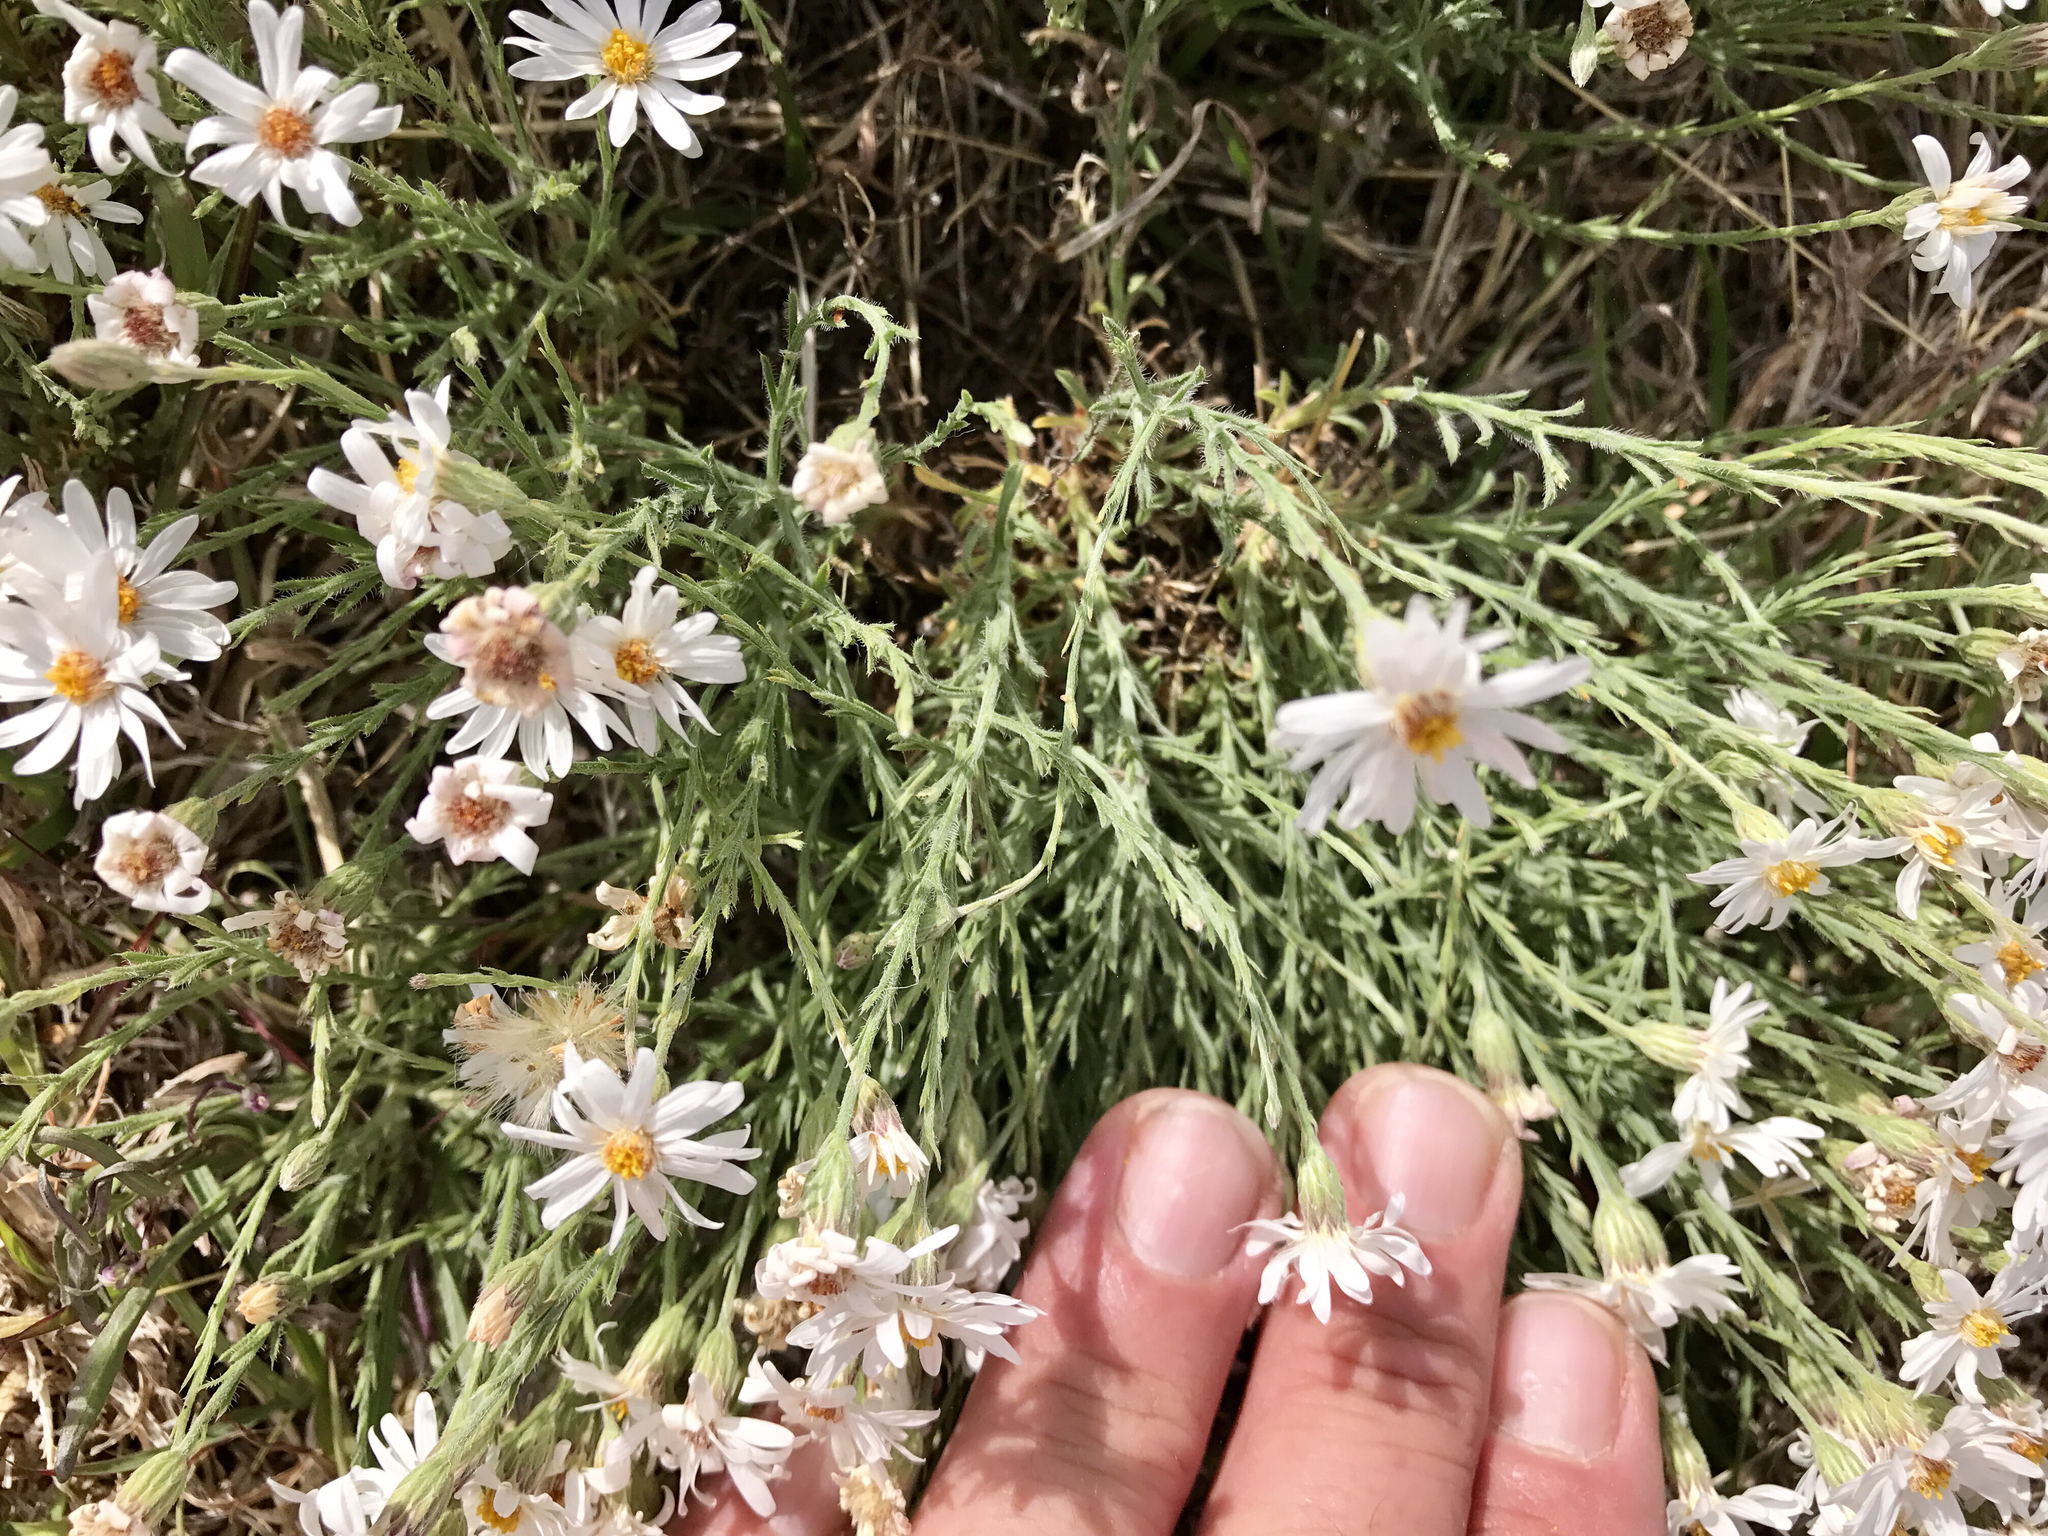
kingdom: Plantae
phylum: Tracheophyta
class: Magnoliopsida
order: Asterales
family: Asteraceae
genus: Chaetopappa
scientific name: Chaetopappa ericoides
